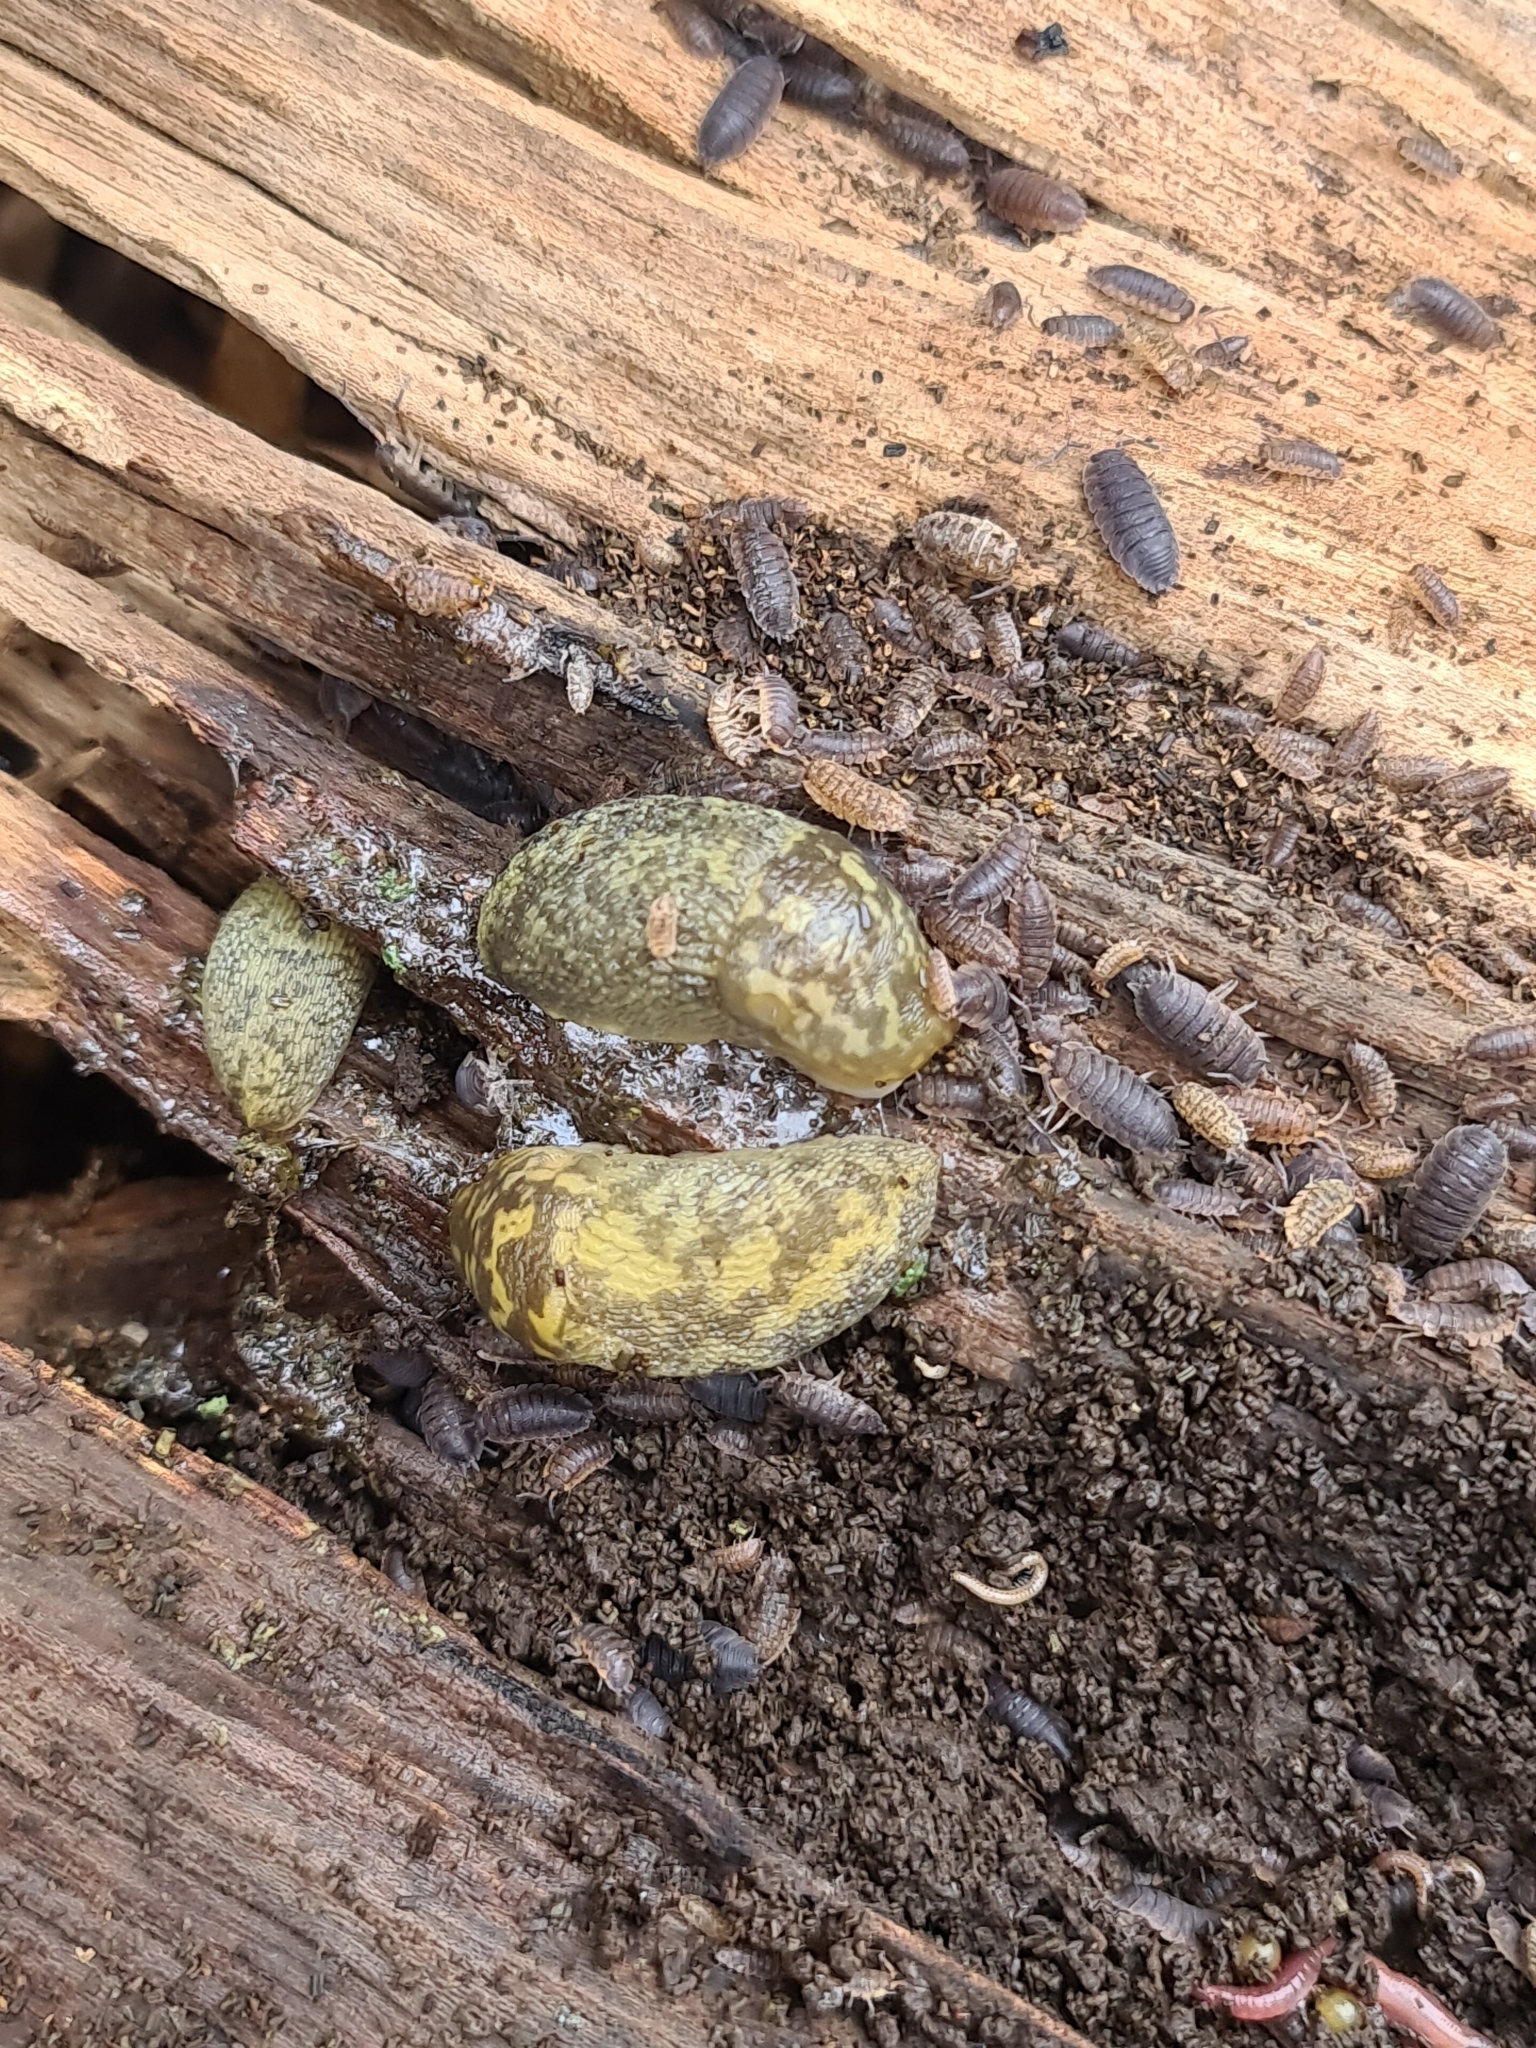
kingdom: Animalia
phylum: Mollusca
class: Gastropoda
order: Stylommatophora
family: Limacidae
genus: Limacus
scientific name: Limacus maculatus
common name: Irish yellow slug
